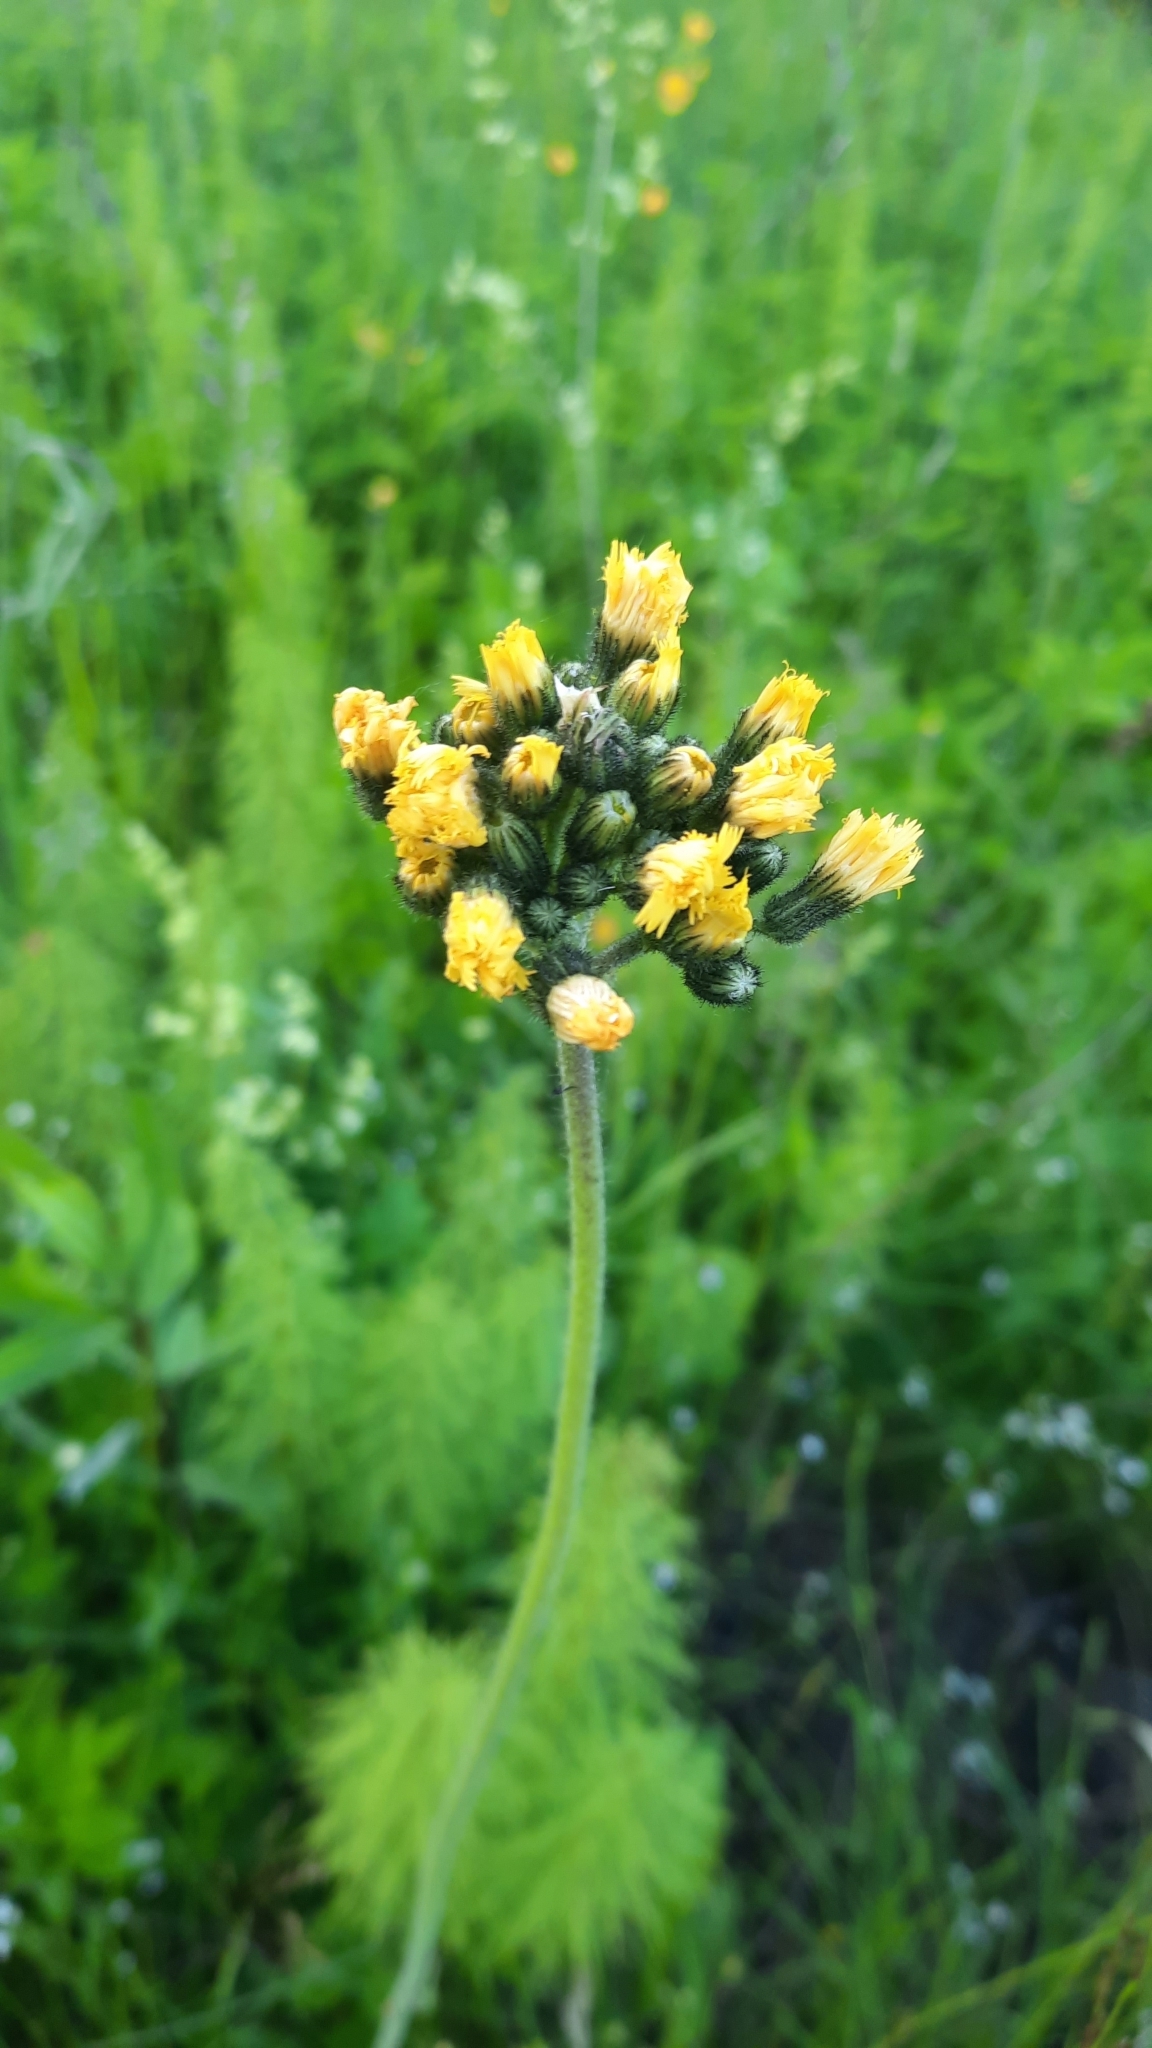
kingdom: Plantae
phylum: Tracheophyta
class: Magnoliopsida
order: Asterales
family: Asteraceae
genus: Pilosella
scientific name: Pilosella
